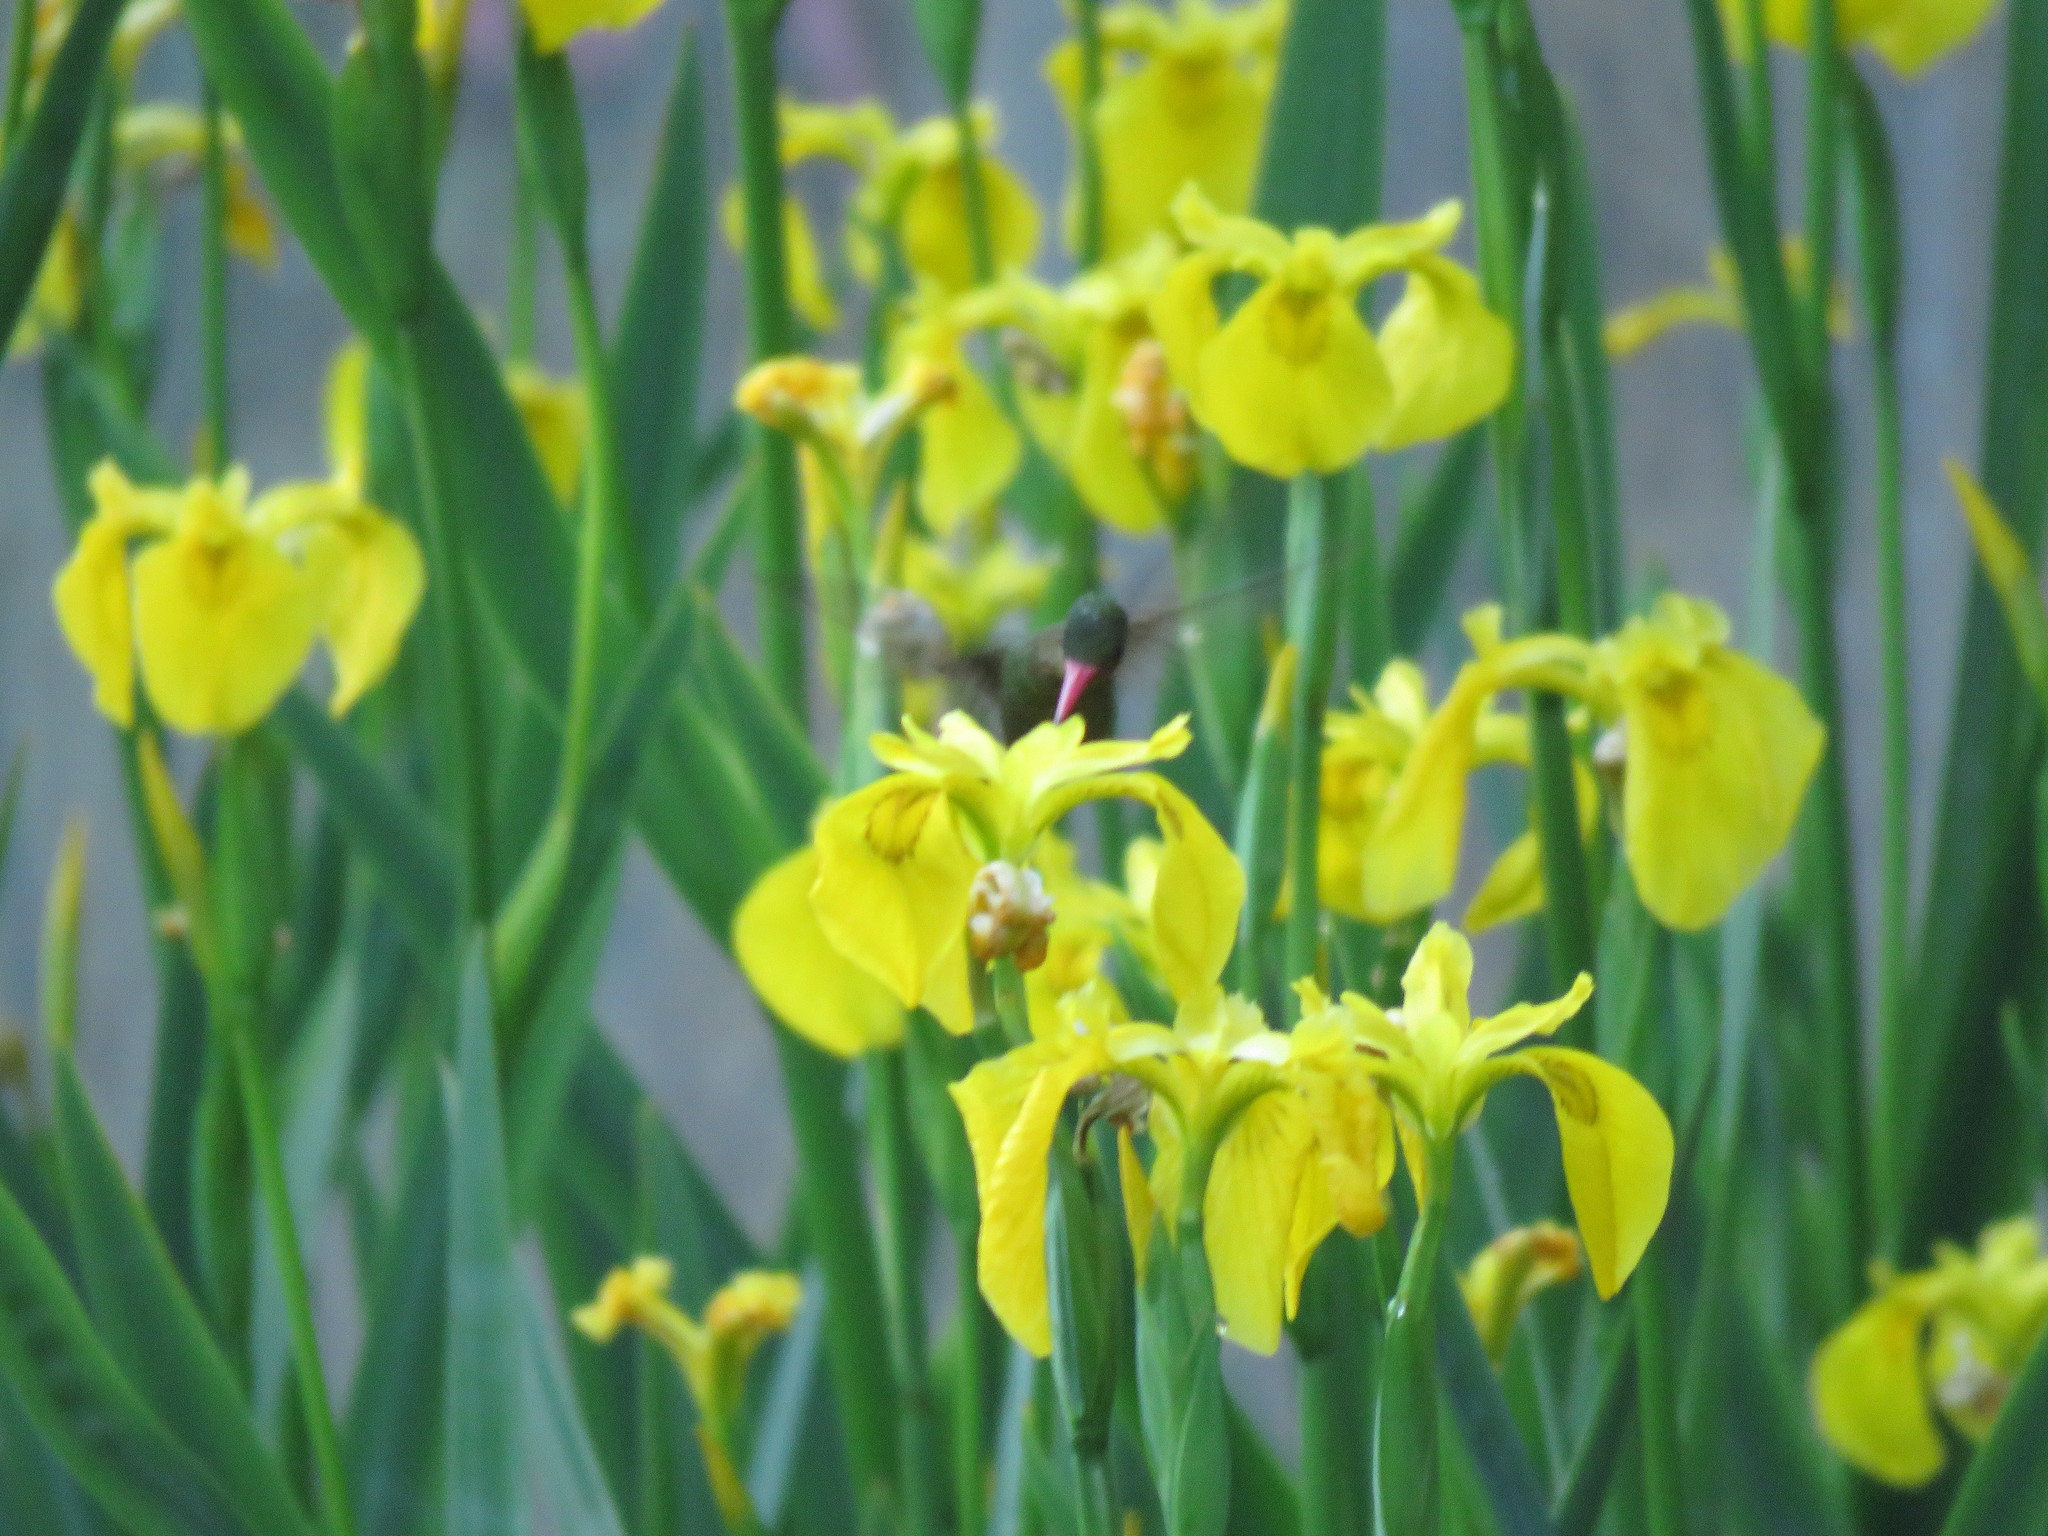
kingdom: Animalia
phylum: Chordata
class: Aves
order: Apodiformes
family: Trochilidae
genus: Chlorostilbon
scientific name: Chlorostilbon lucidus
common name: Glittering-bellied emerald
